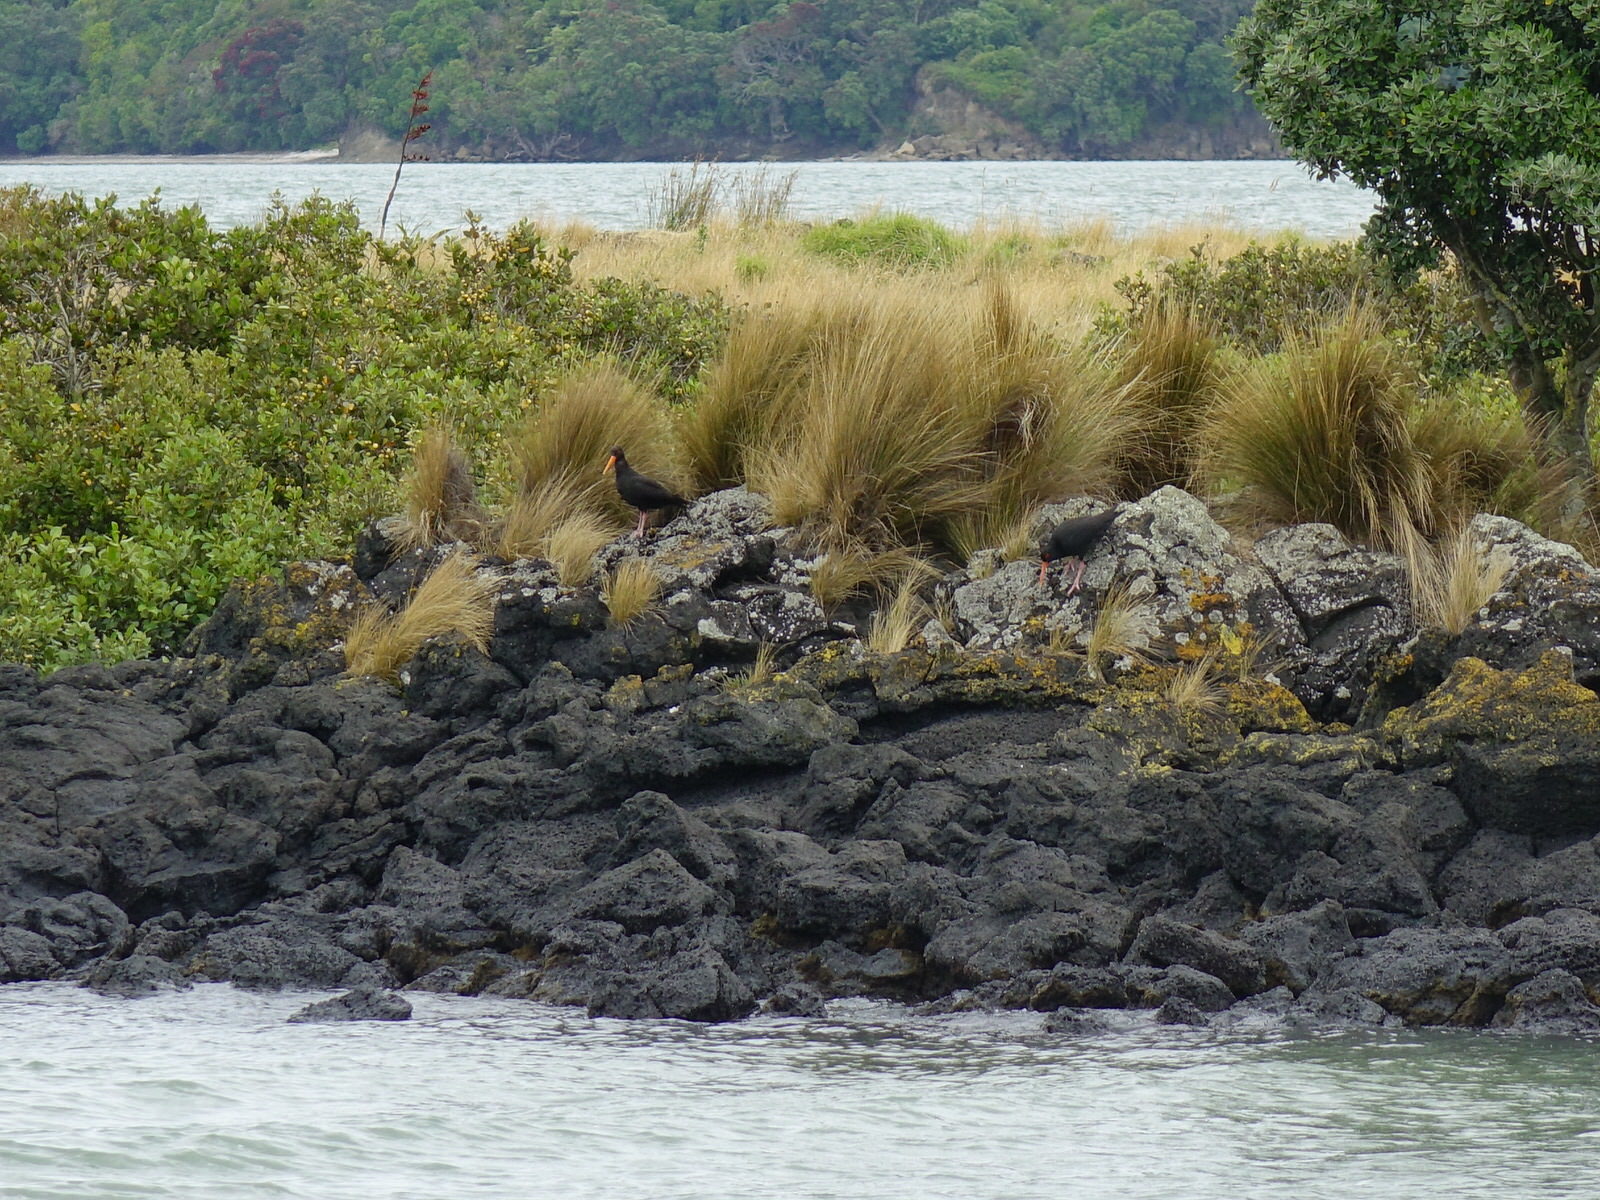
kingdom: Animalia
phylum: Chordata
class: Aves
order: Charadriiformes
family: Haematopodidae
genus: Haematopus
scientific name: Haematopus unicolor
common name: Variable oystercatcher
